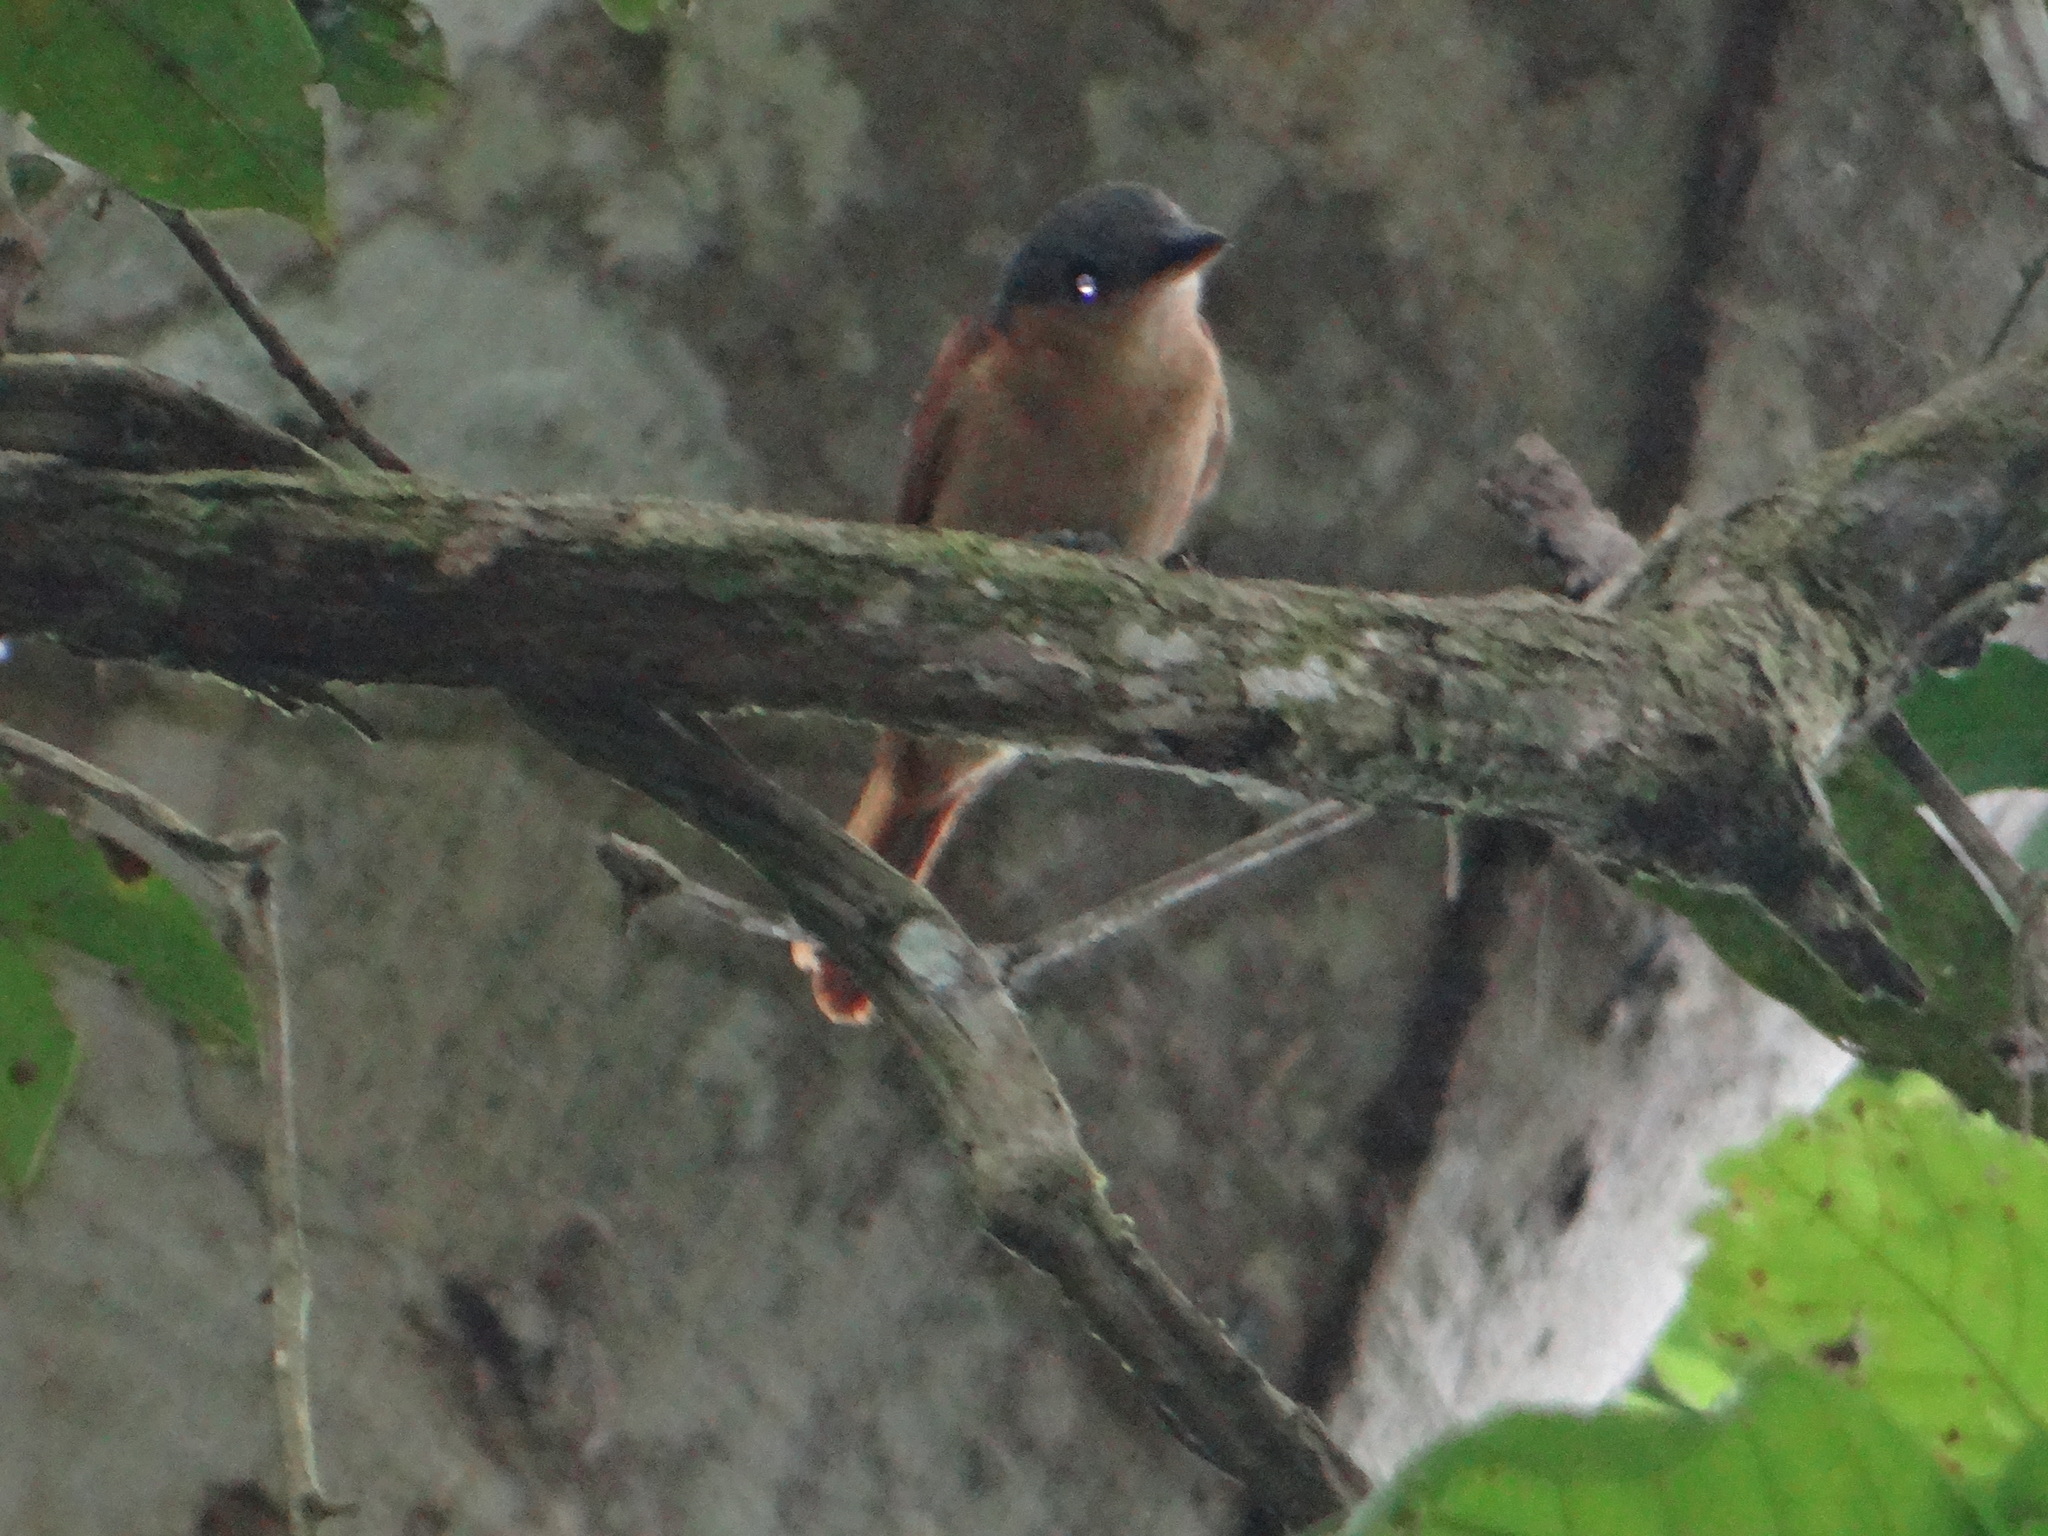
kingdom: Animalia
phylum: Chordata
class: Aves
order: Passeriformes
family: Cotingidae
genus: Pachyramphus
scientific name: Pachyramphus minor
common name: Pink-throated becard
